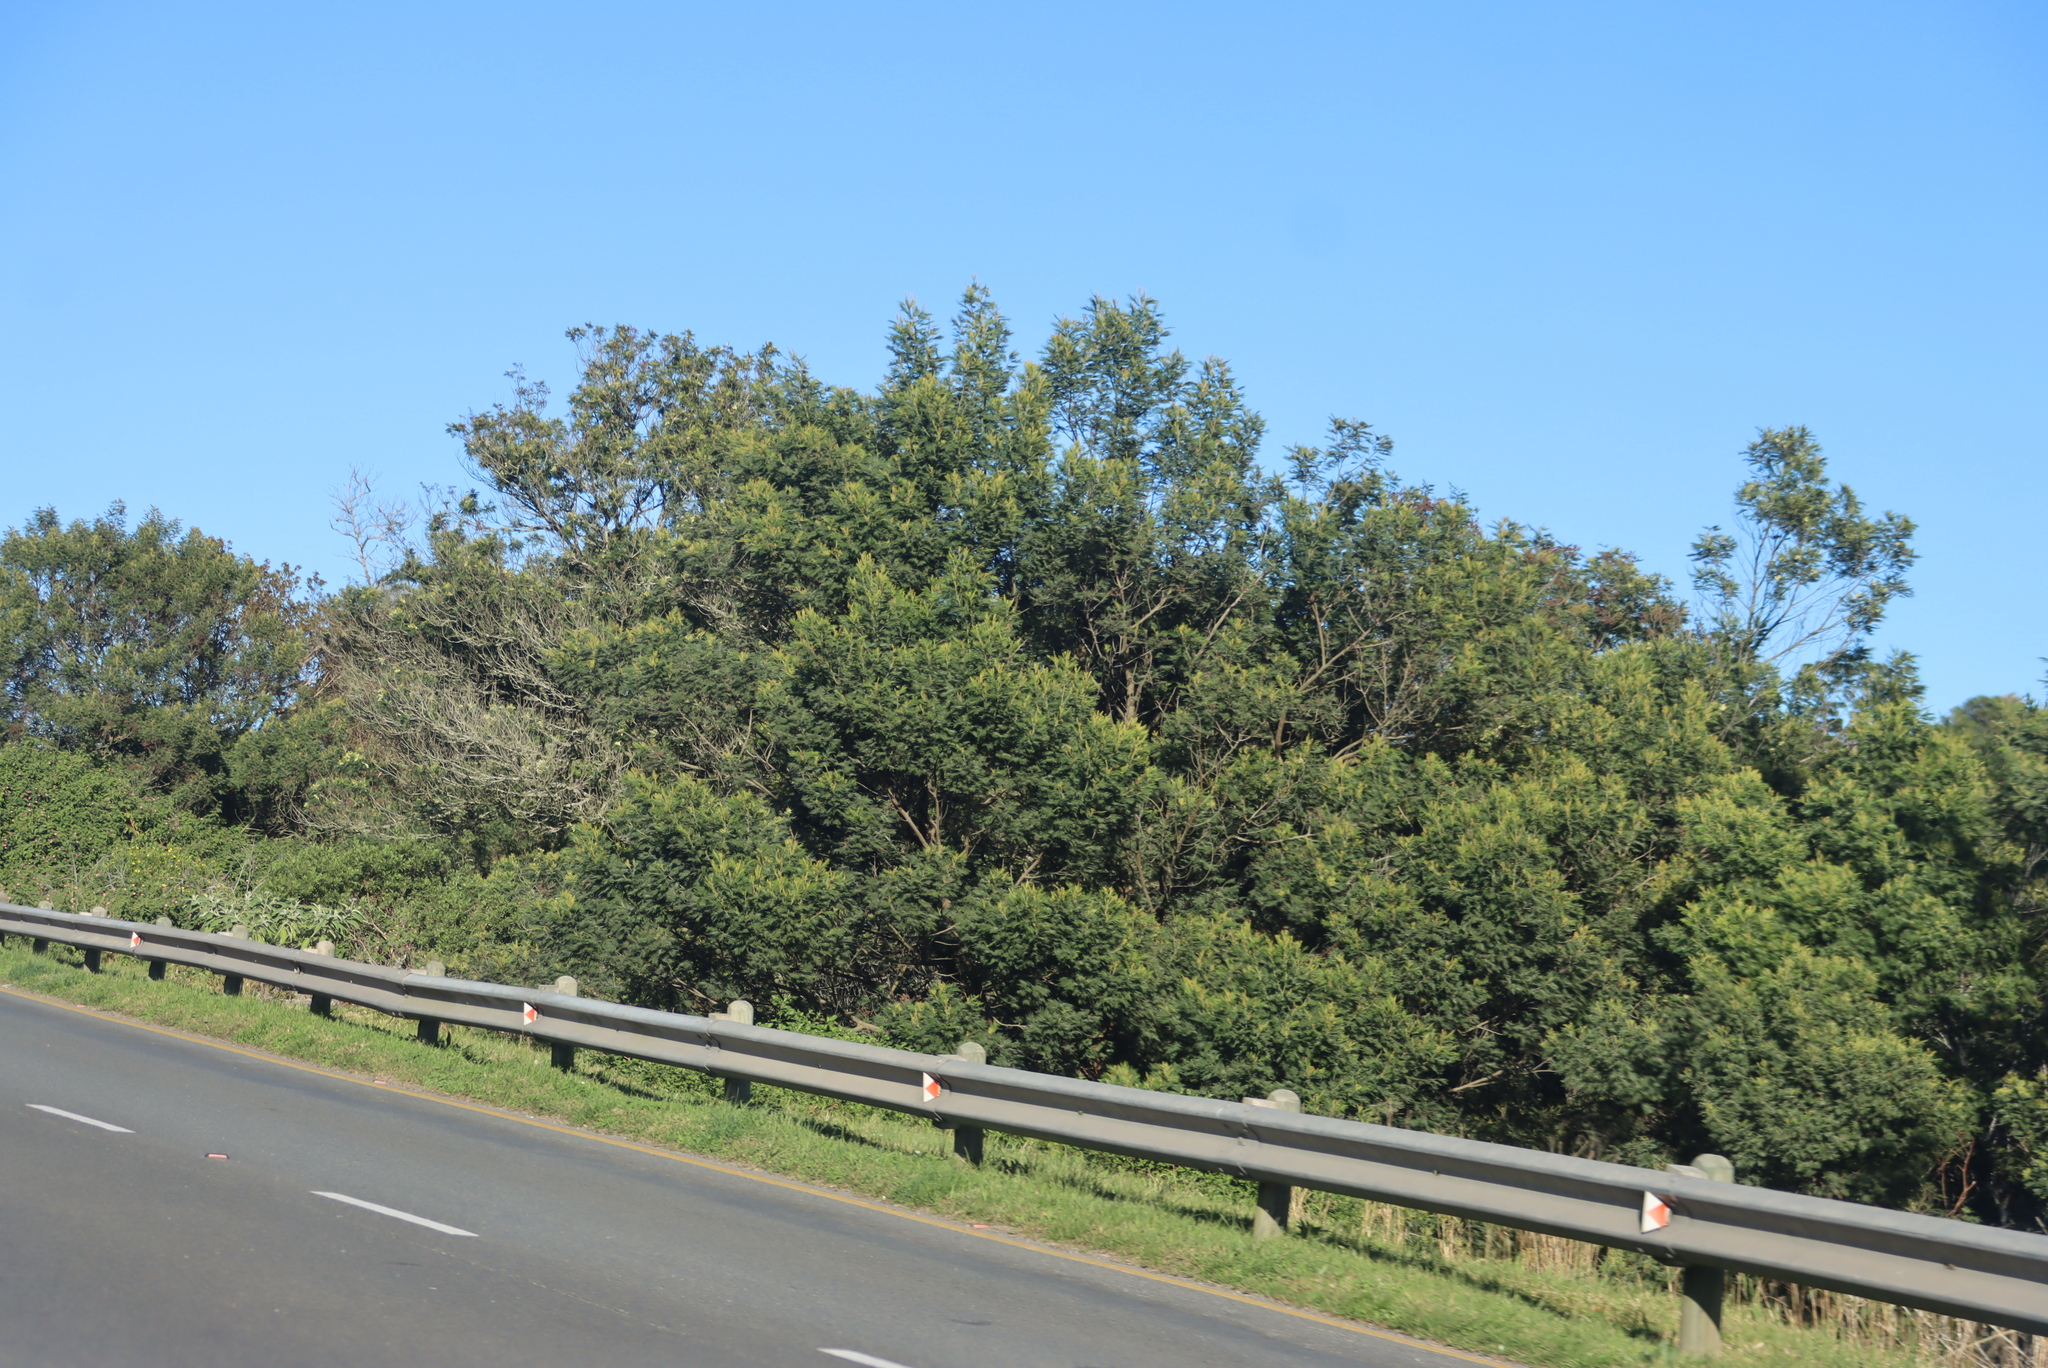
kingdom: Plantae
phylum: Tracheophyta
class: Magnoliopsida
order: Fabales
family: Fabaceae
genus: Acacia
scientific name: Acacia mearnsii
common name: Black wattle
